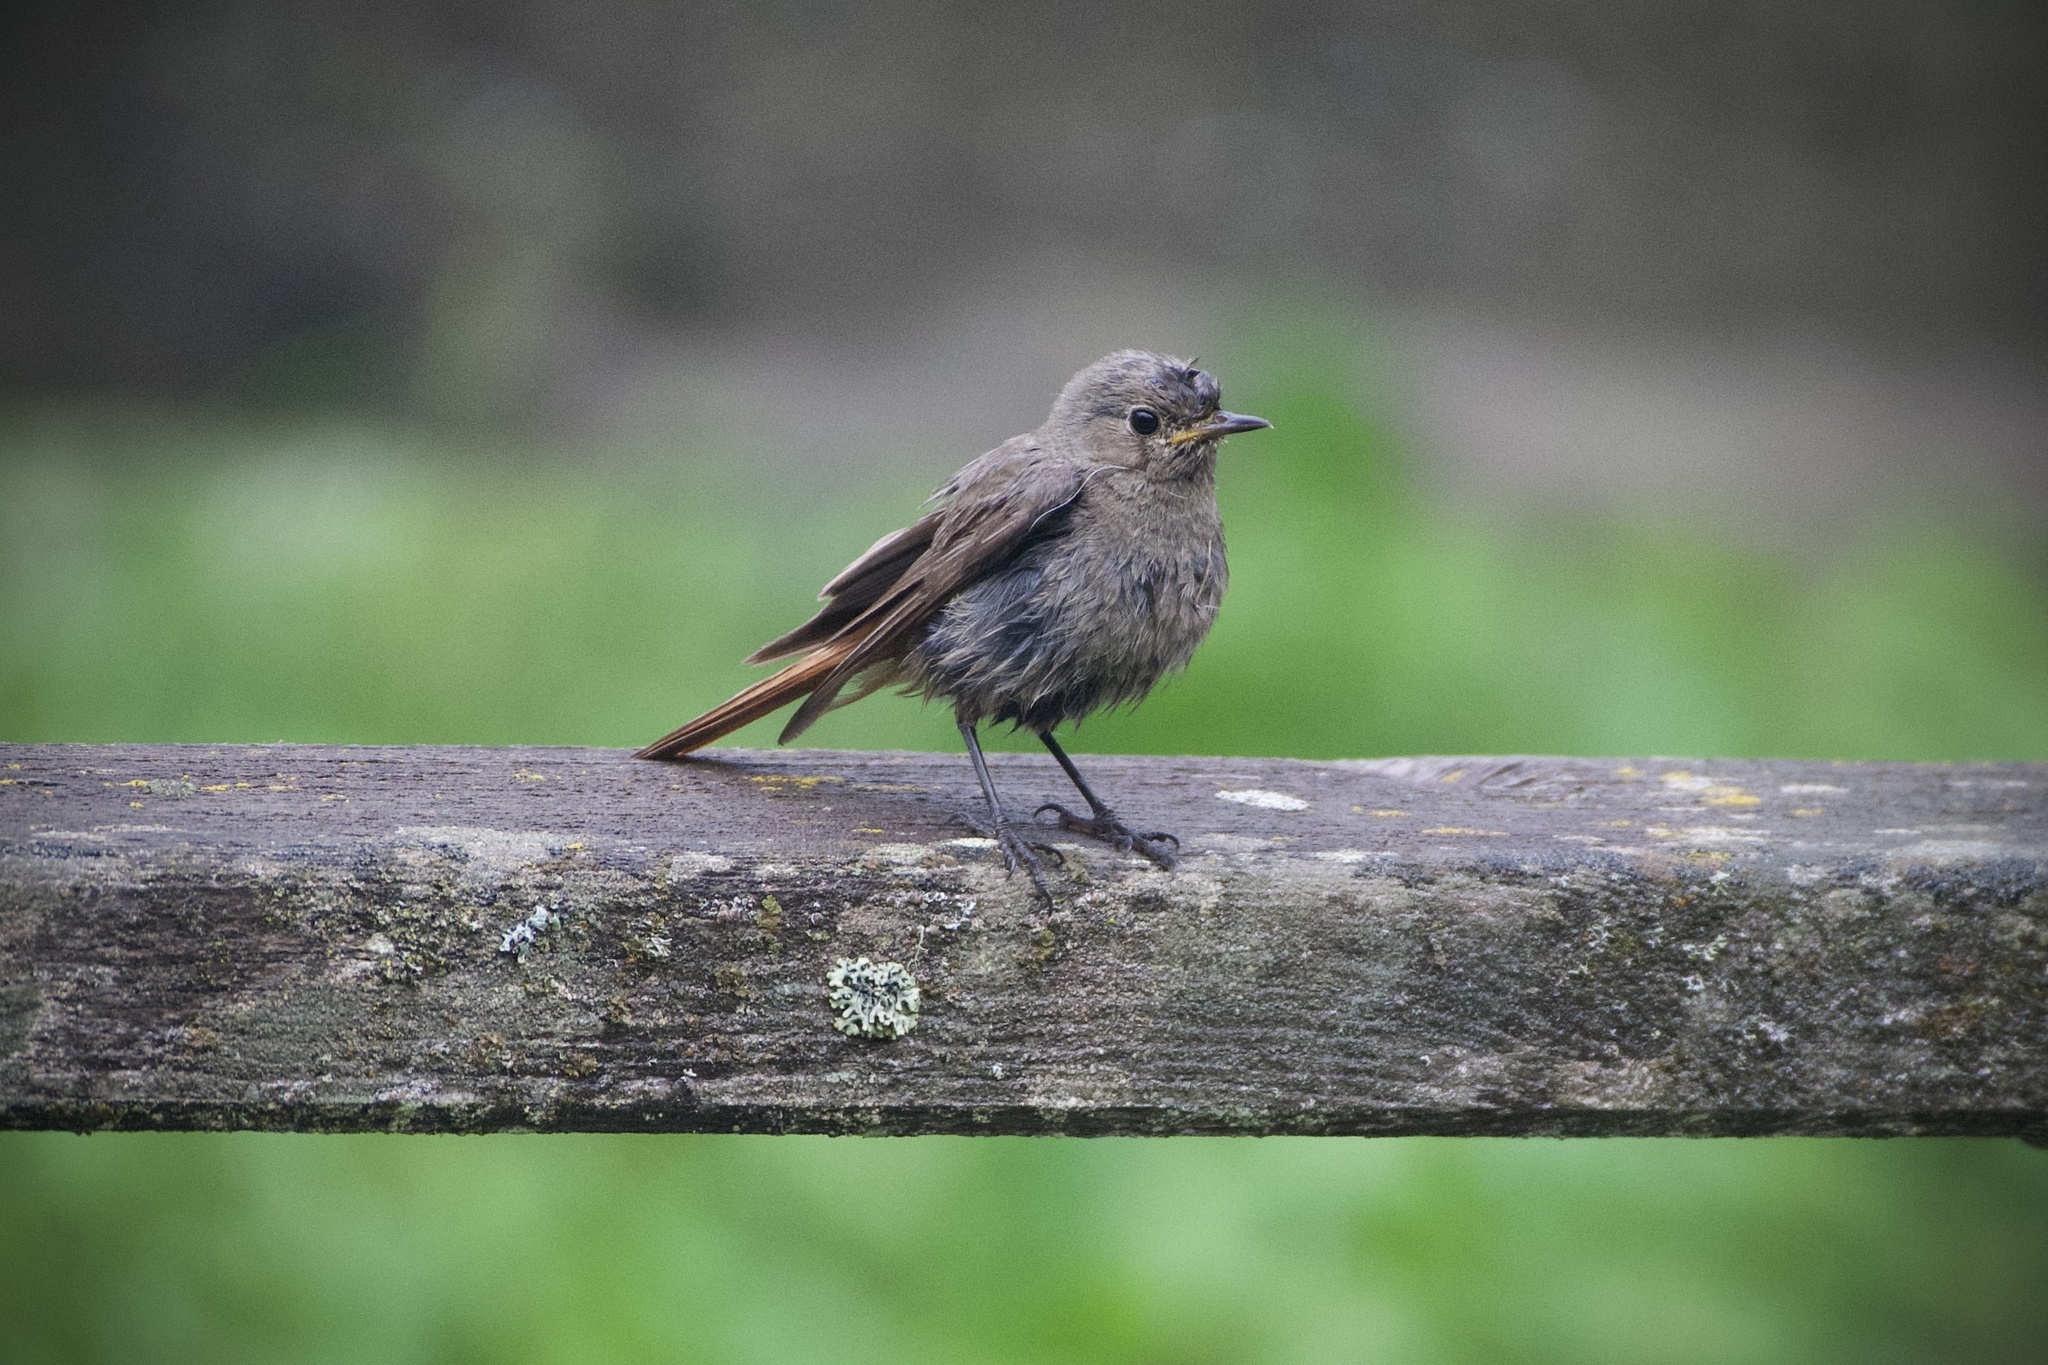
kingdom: Animalia
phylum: Chordata
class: Aves
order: Passeriformes
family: Muscicapidae
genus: Phoenicurus
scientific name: Phoenicurus ochruros
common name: Black redstart
